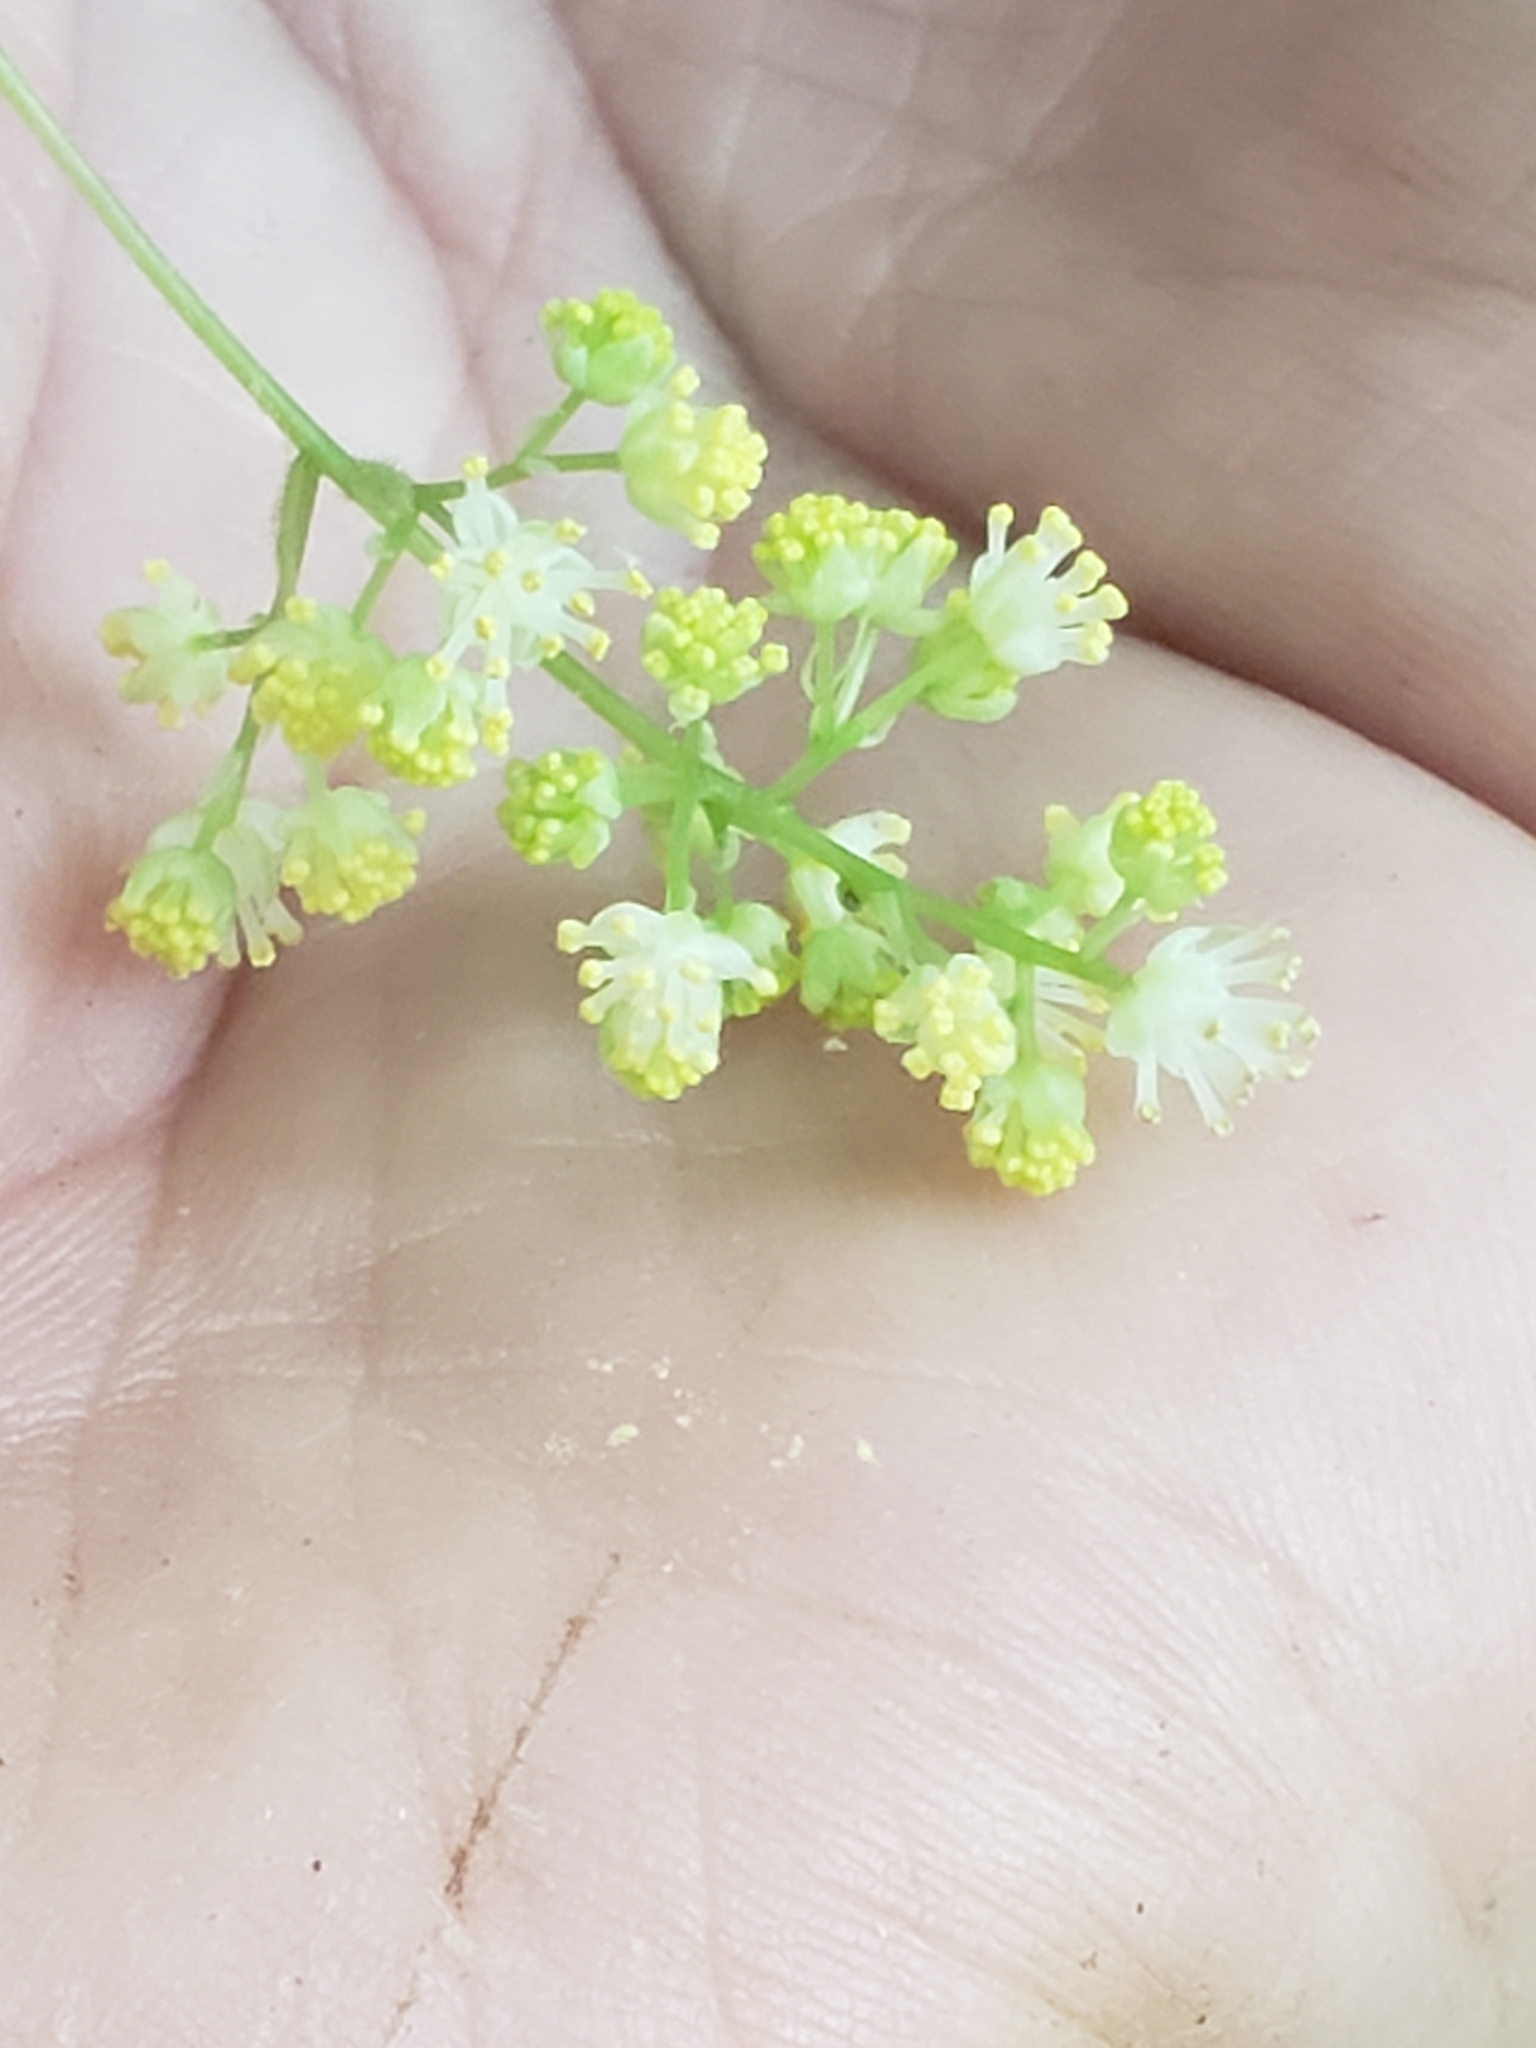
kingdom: Plantae
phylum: Tracheophyta
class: Magnoliopsida
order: Ranunculales
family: Menispermaceae
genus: Menispermum
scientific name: Menispermum canadense
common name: Moonseed
